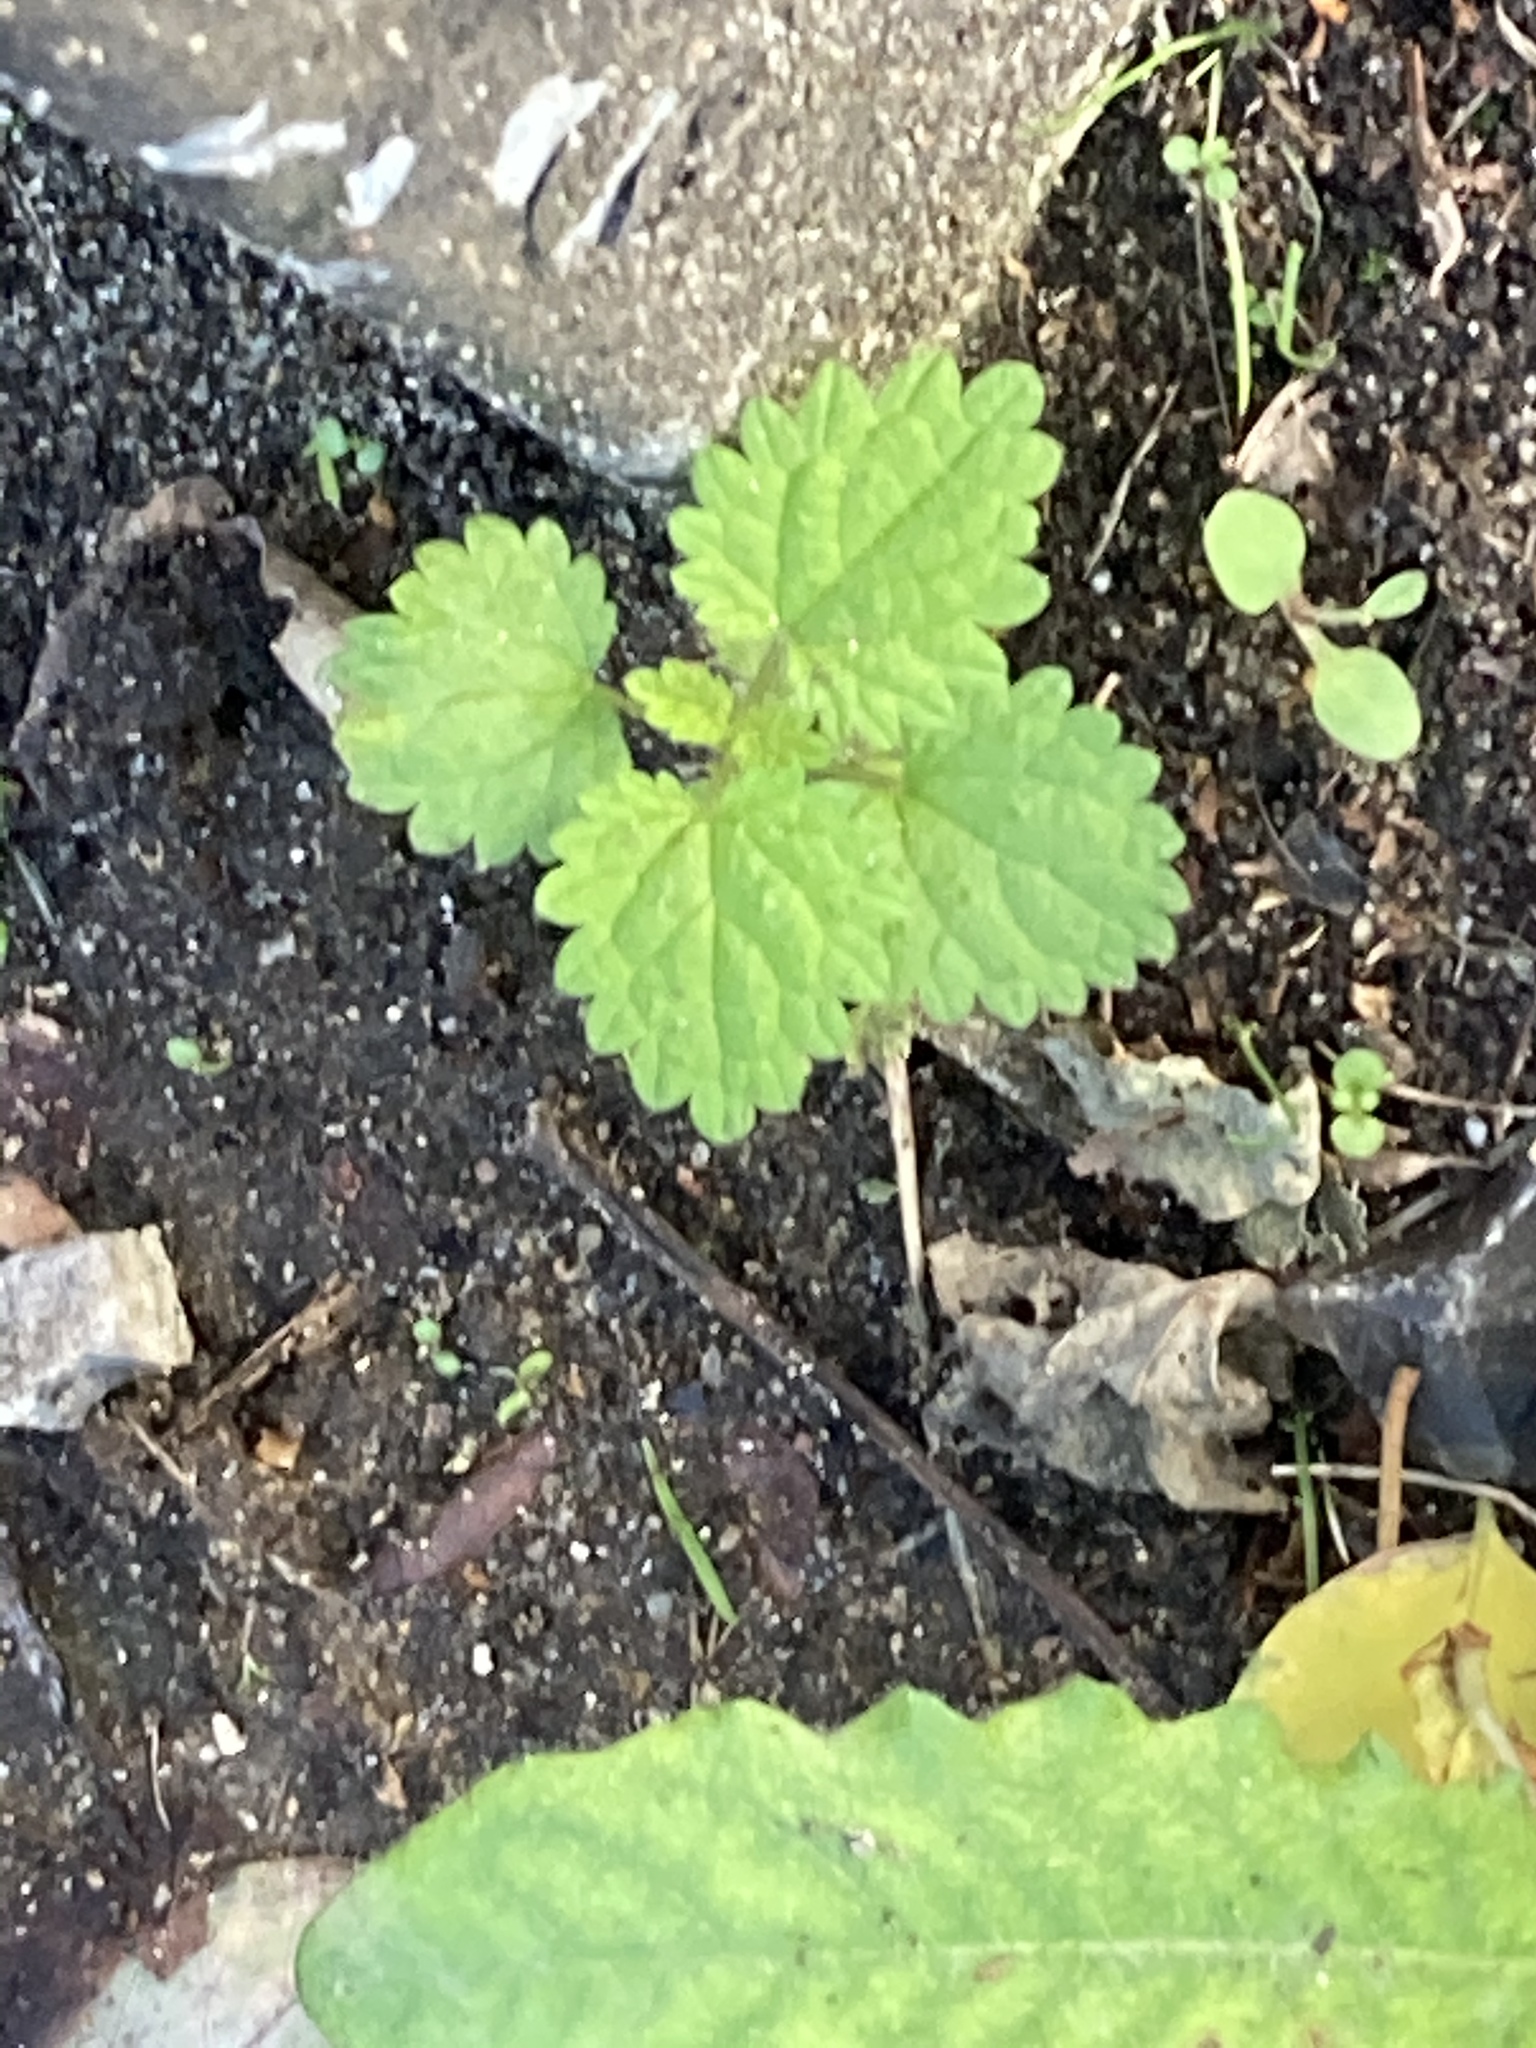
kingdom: Plantae
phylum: Tracheophyta
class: Magnoliopsida
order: Rosales
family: Urticaceae
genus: Urtica
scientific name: Urtica dioica
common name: Common nettle
